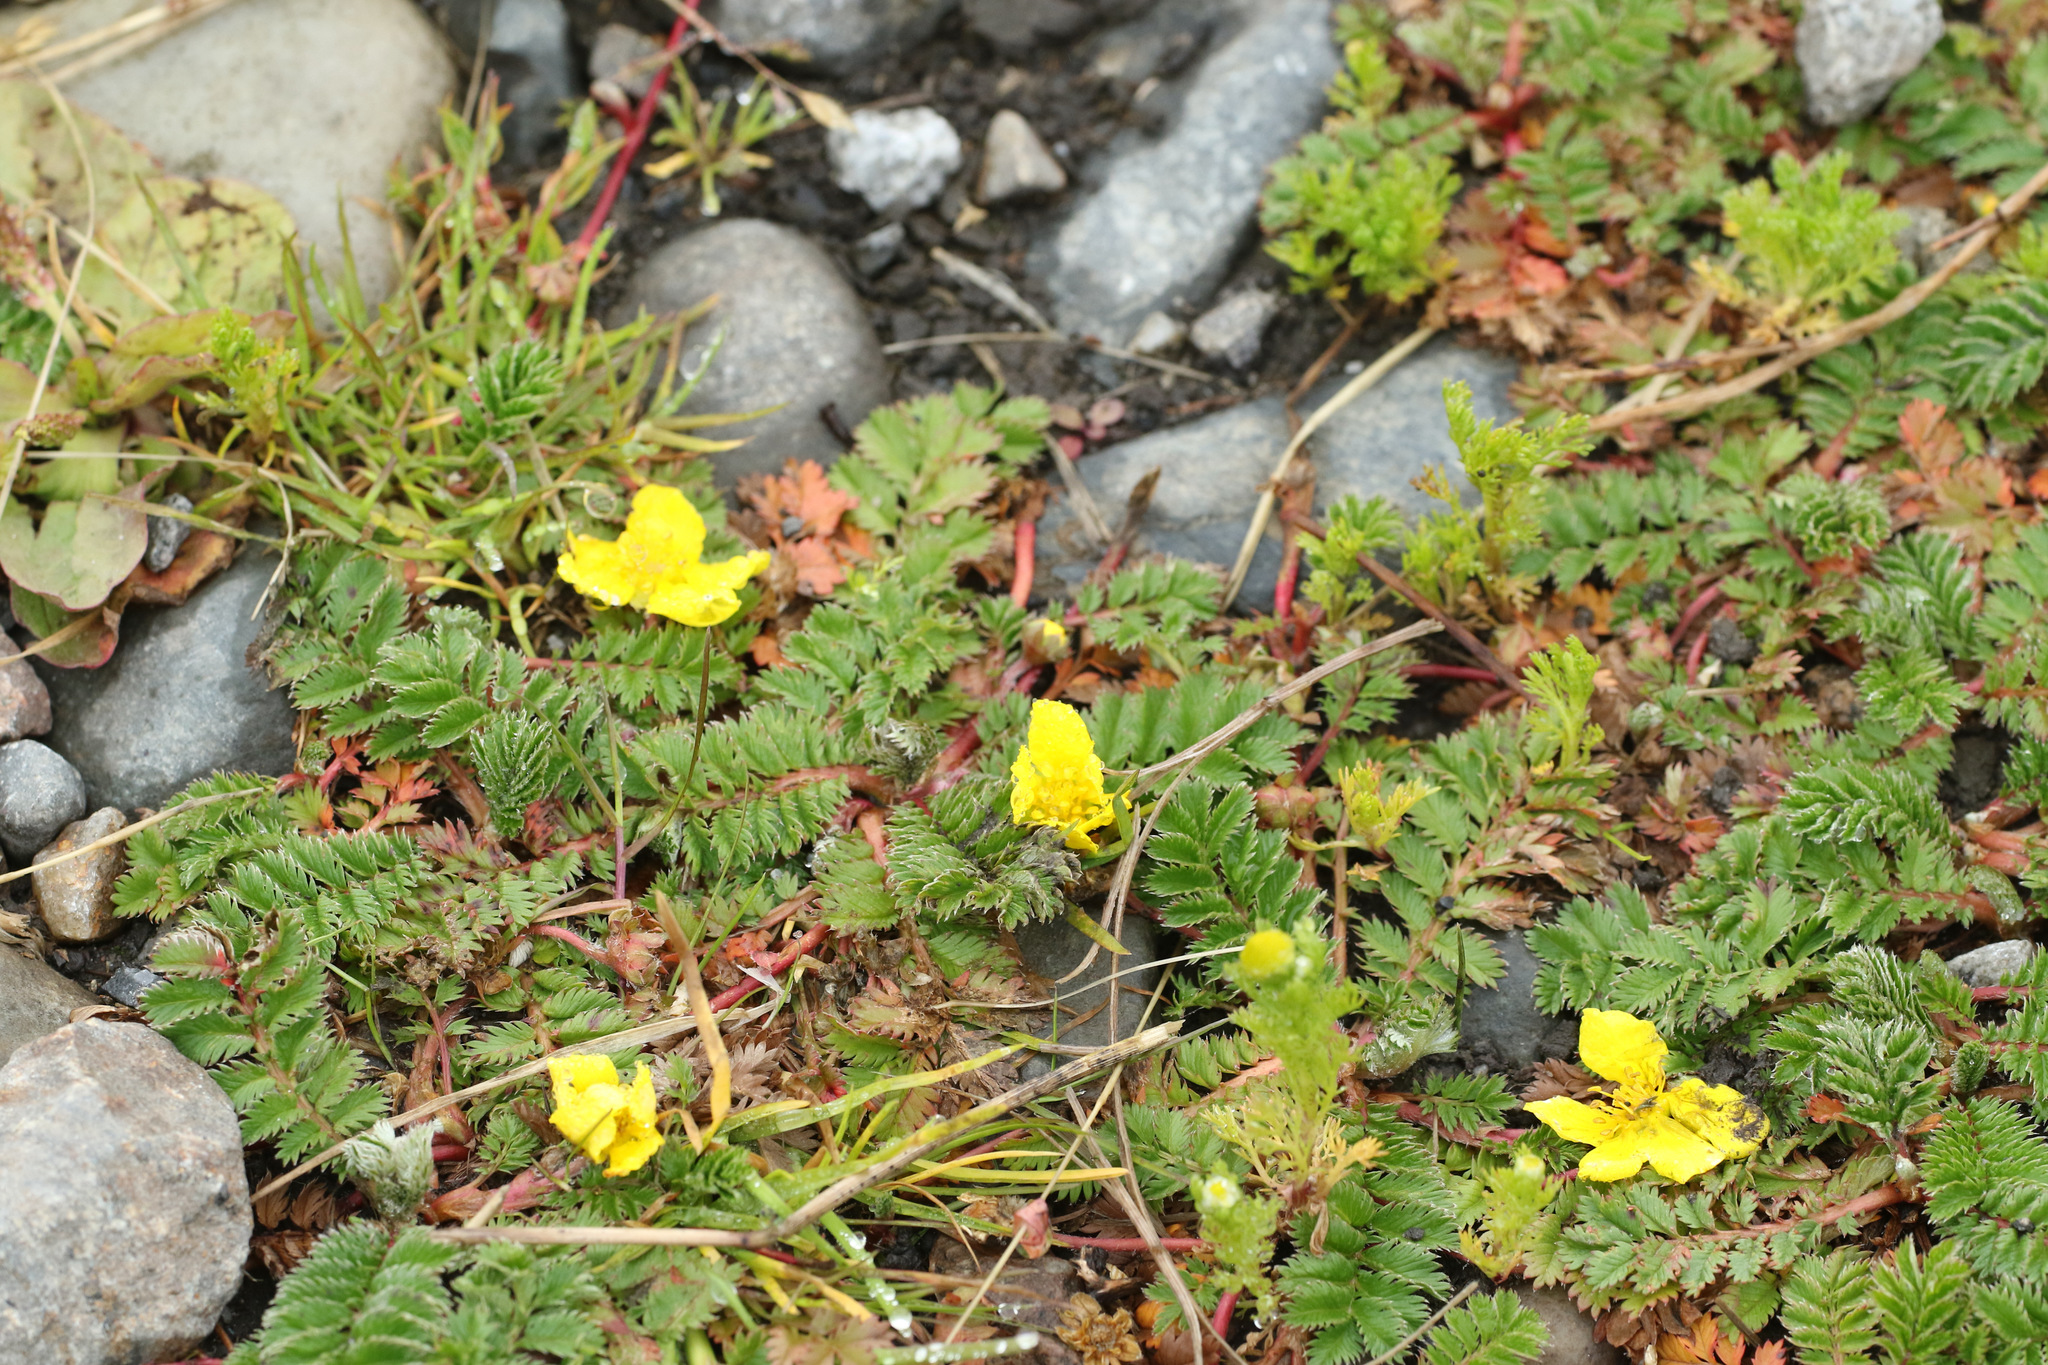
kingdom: Plantae
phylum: Tracheophyta
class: Magnoliopsida
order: Rosales
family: Rosaceae
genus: Argentina
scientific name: Argentina anserina
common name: Common silverweed
